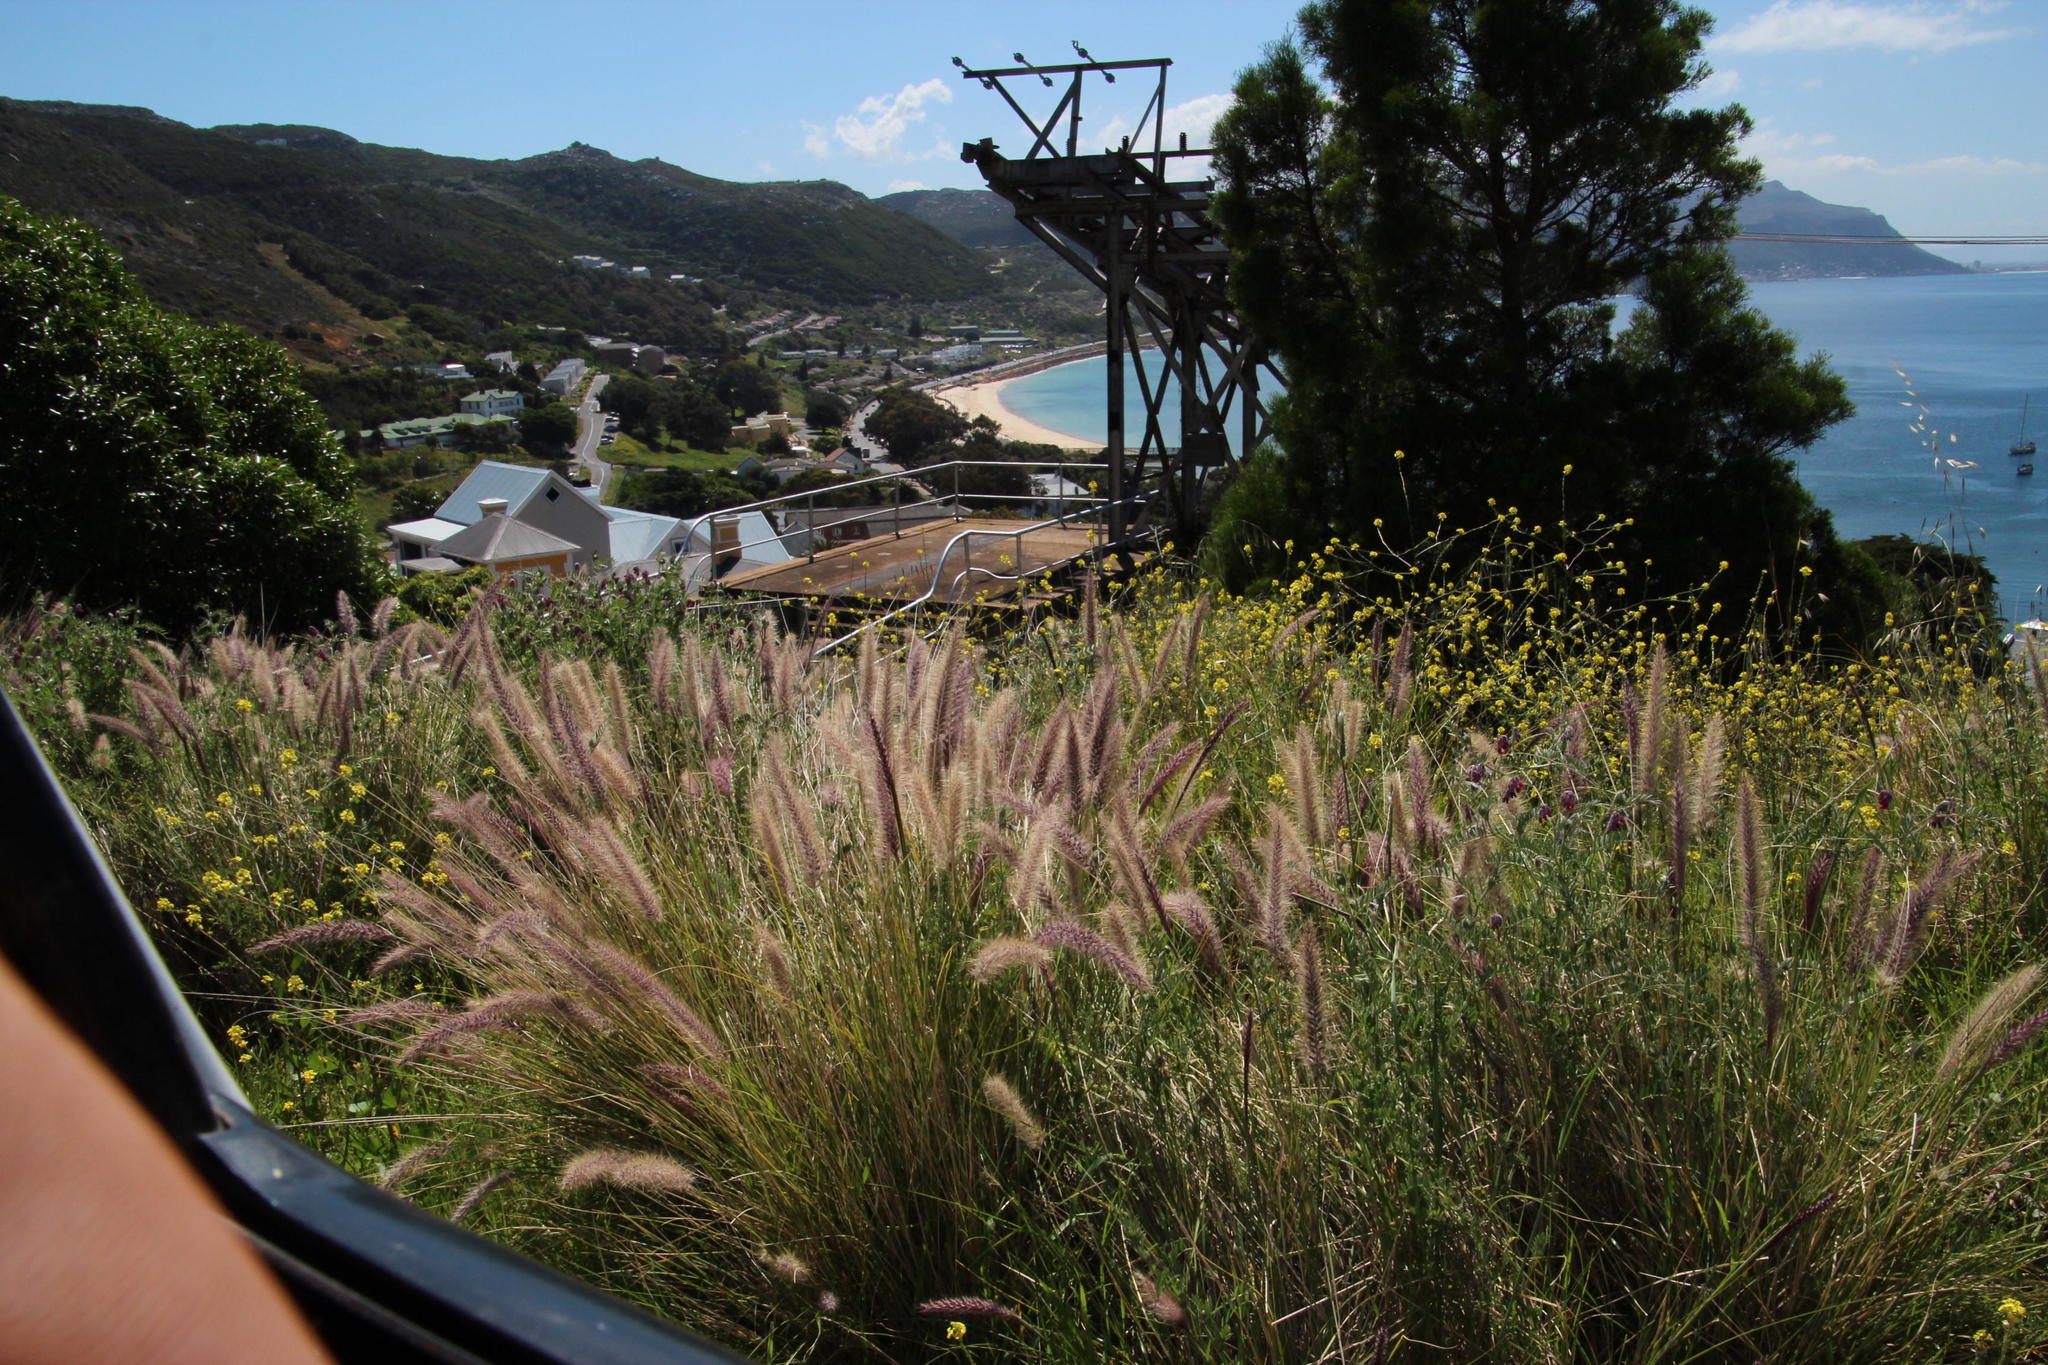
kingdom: Plantae
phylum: Tracheophyta
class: Liliopsida
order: Poales
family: Poaceae
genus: Cenchrus
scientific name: Cenchrus setaceus
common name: Crimson fountaingrass
